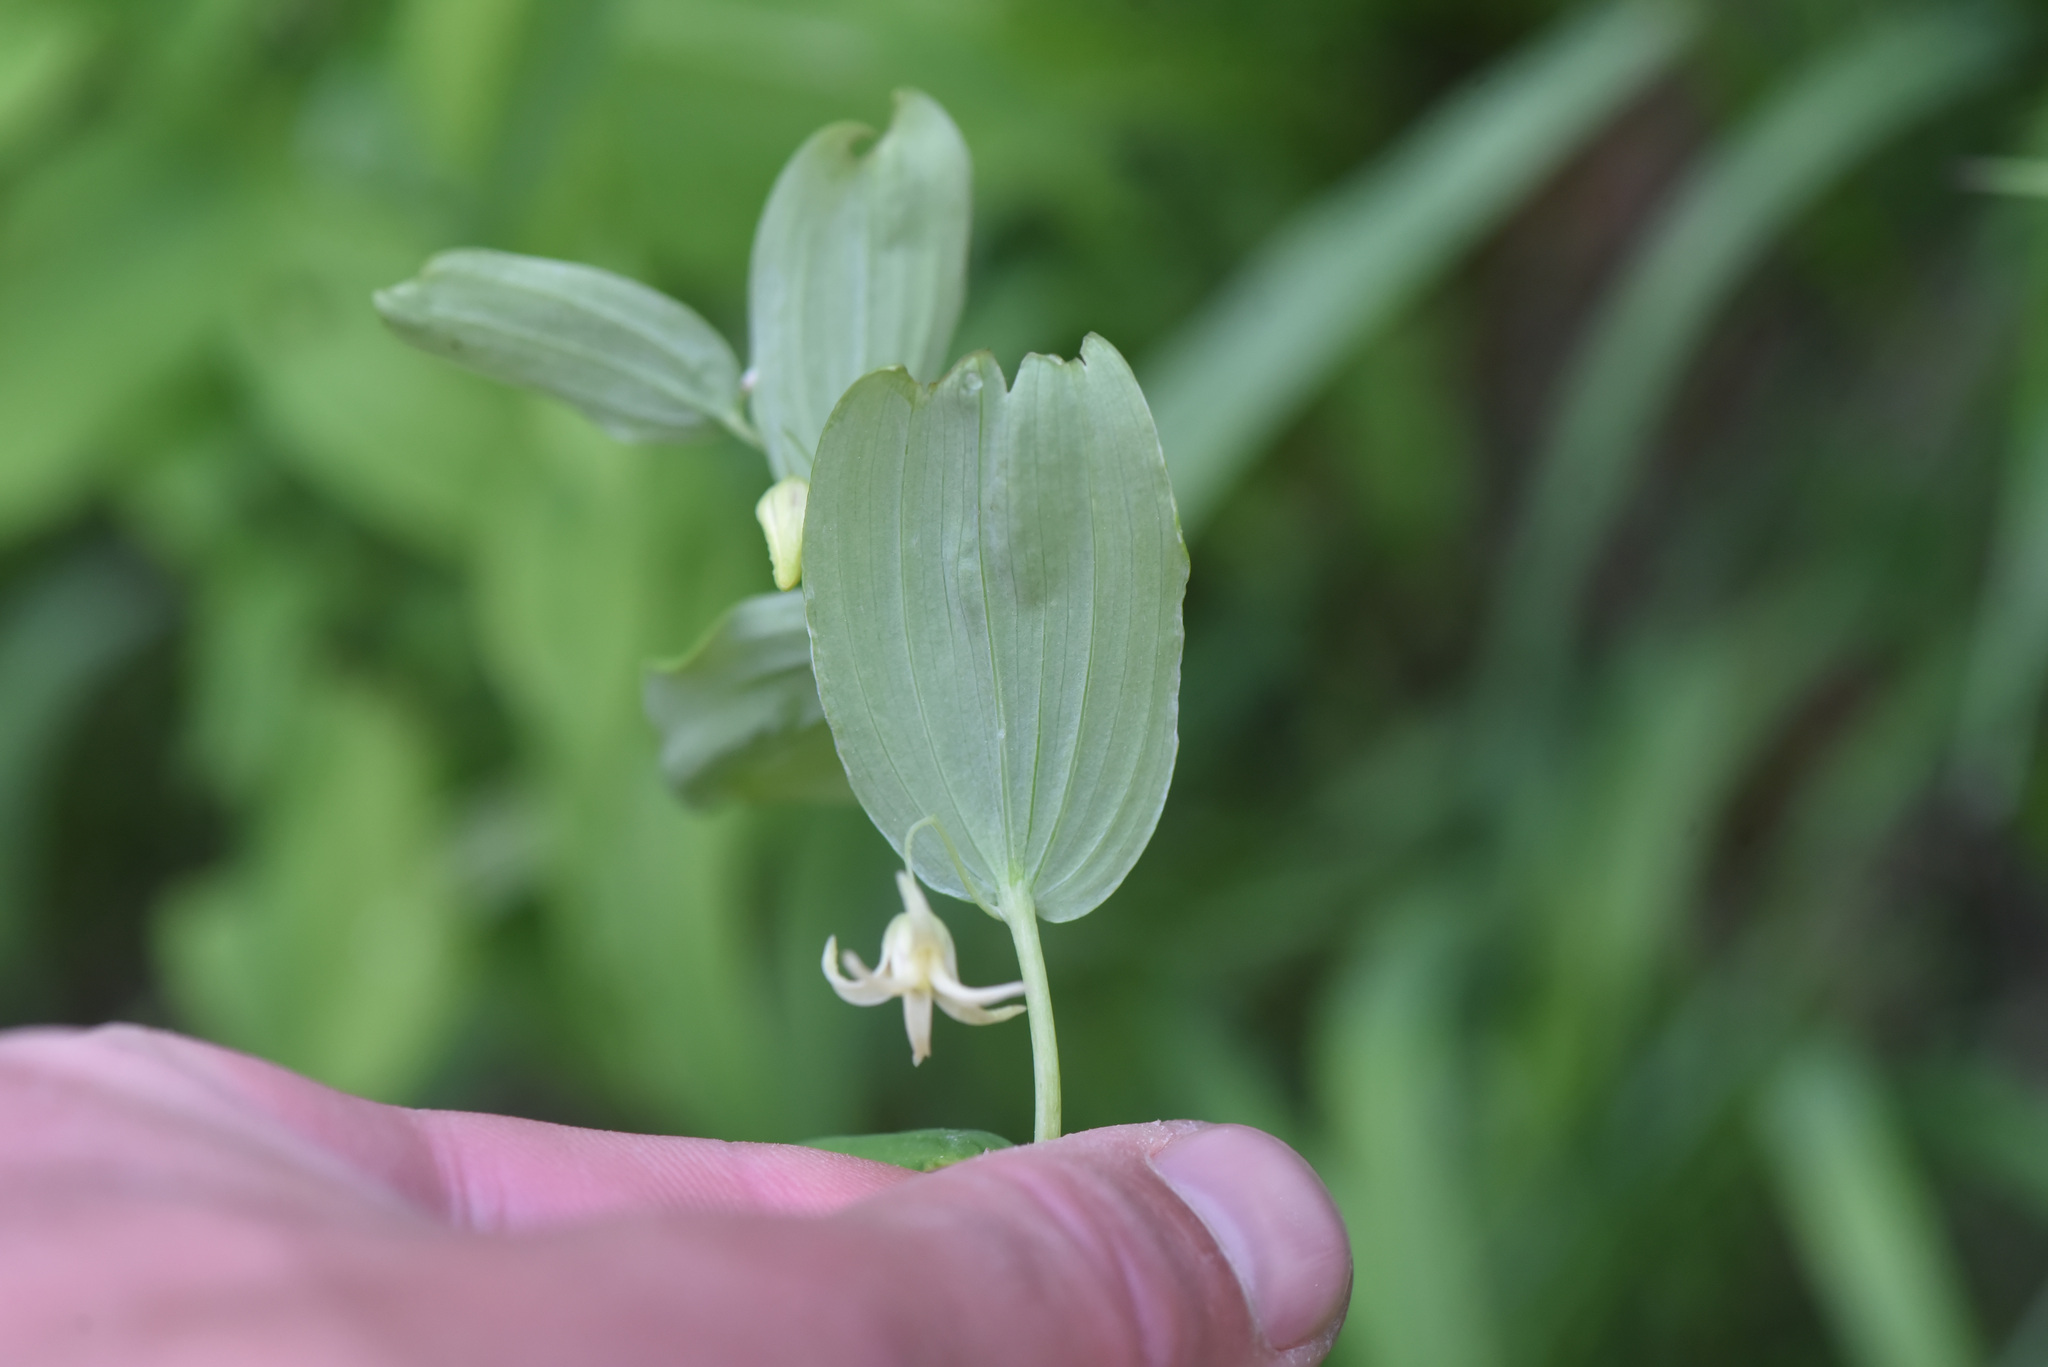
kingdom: Plantae
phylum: Tracheophyta
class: Liliopsida
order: Liliales
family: Liliaceae
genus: Streptopus
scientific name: Streptopus amplexifolius
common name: Clasp twisted stalk
